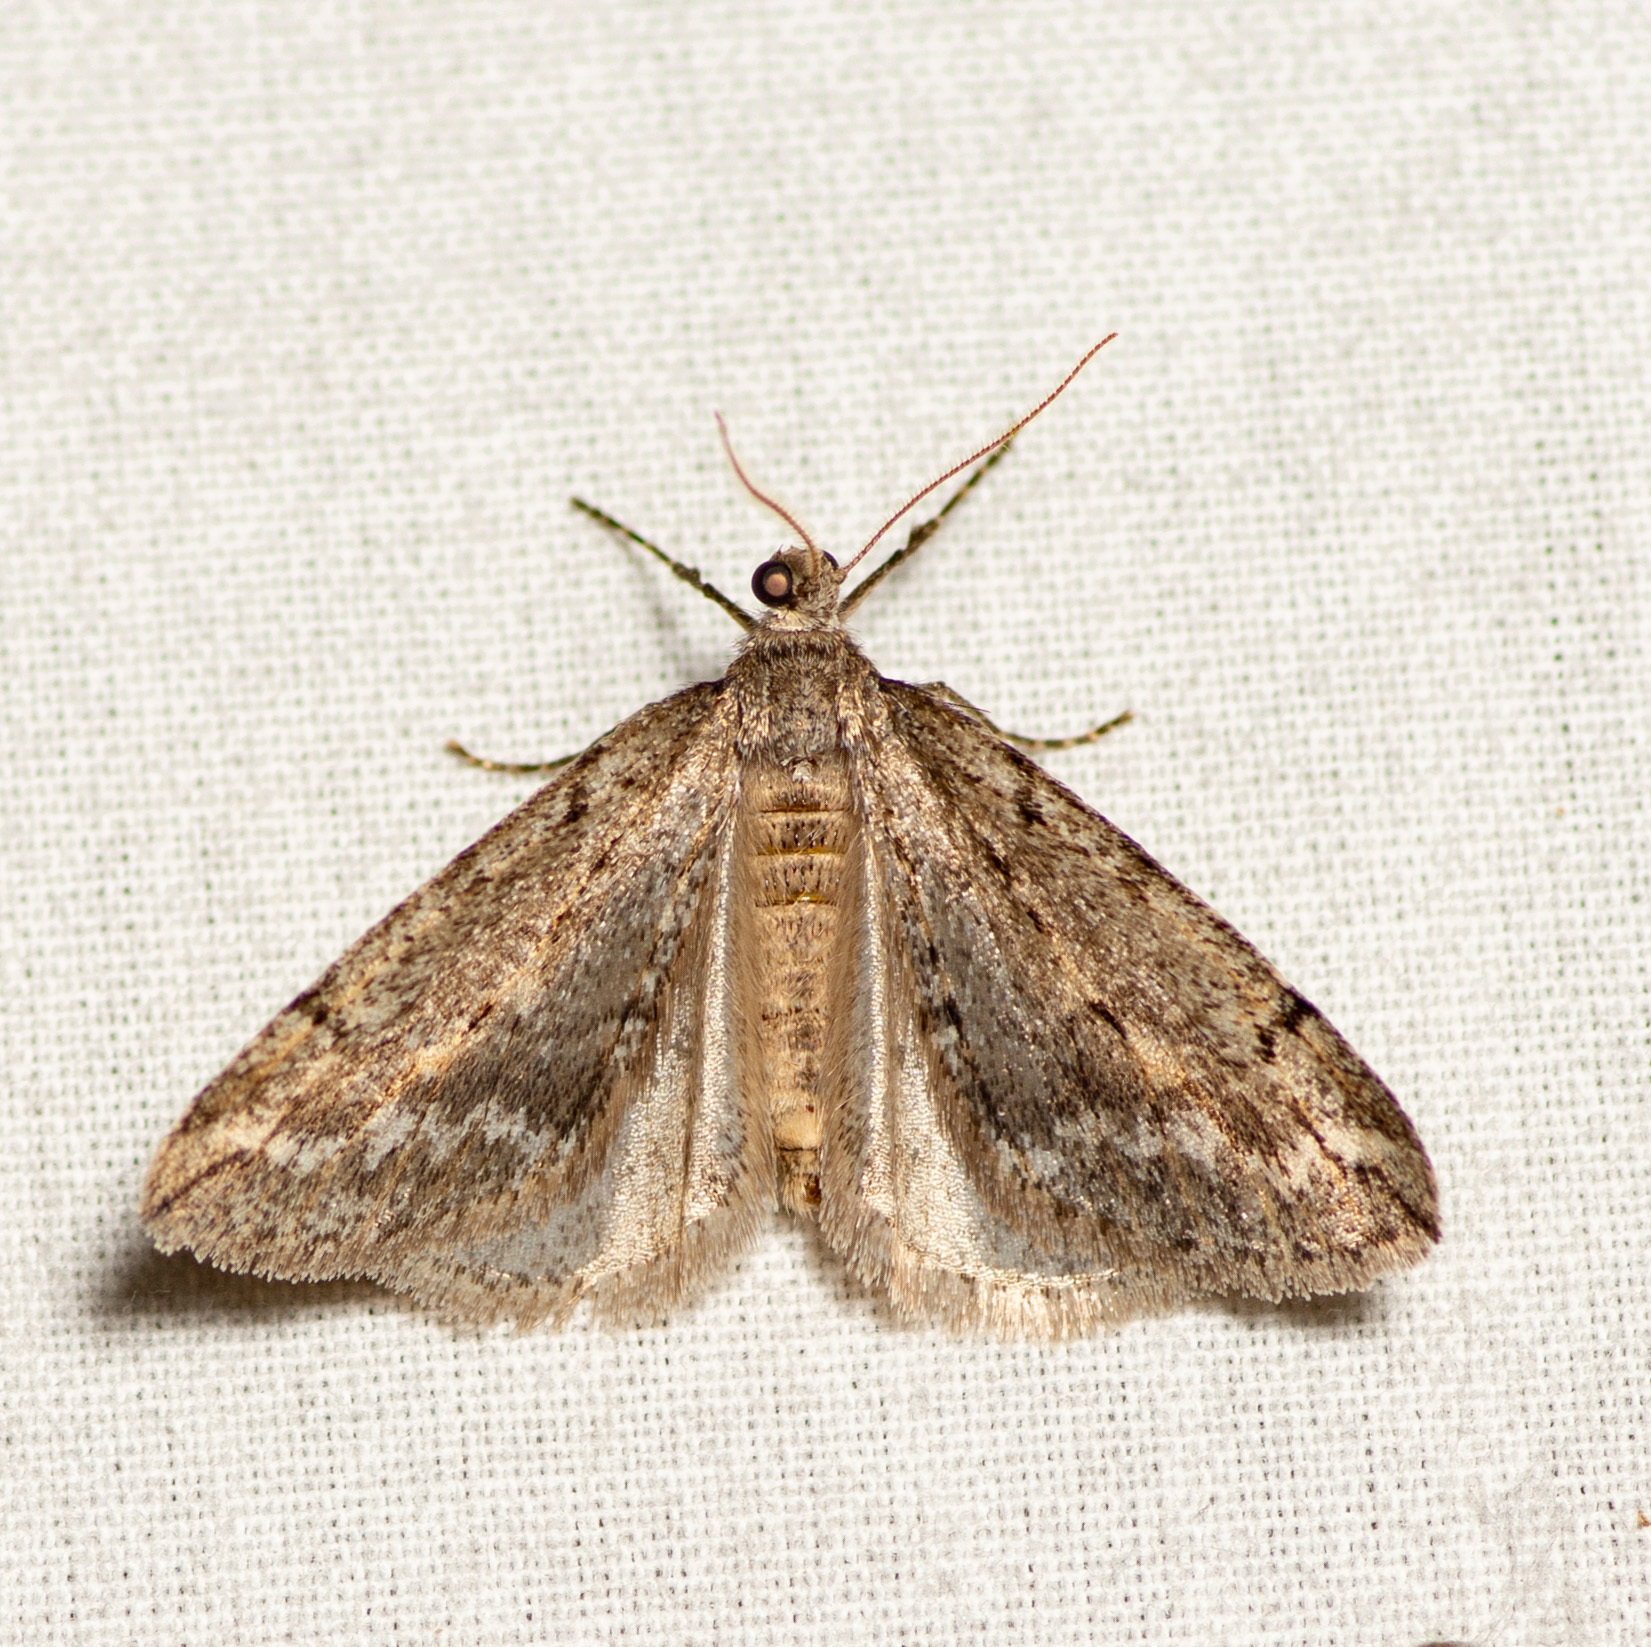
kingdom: Animalia
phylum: Arthropoda
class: Insecta
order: Lepidoptera
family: Geometridae
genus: Paleacrita
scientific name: Paleacrita vernata
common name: Spring cankerworm
